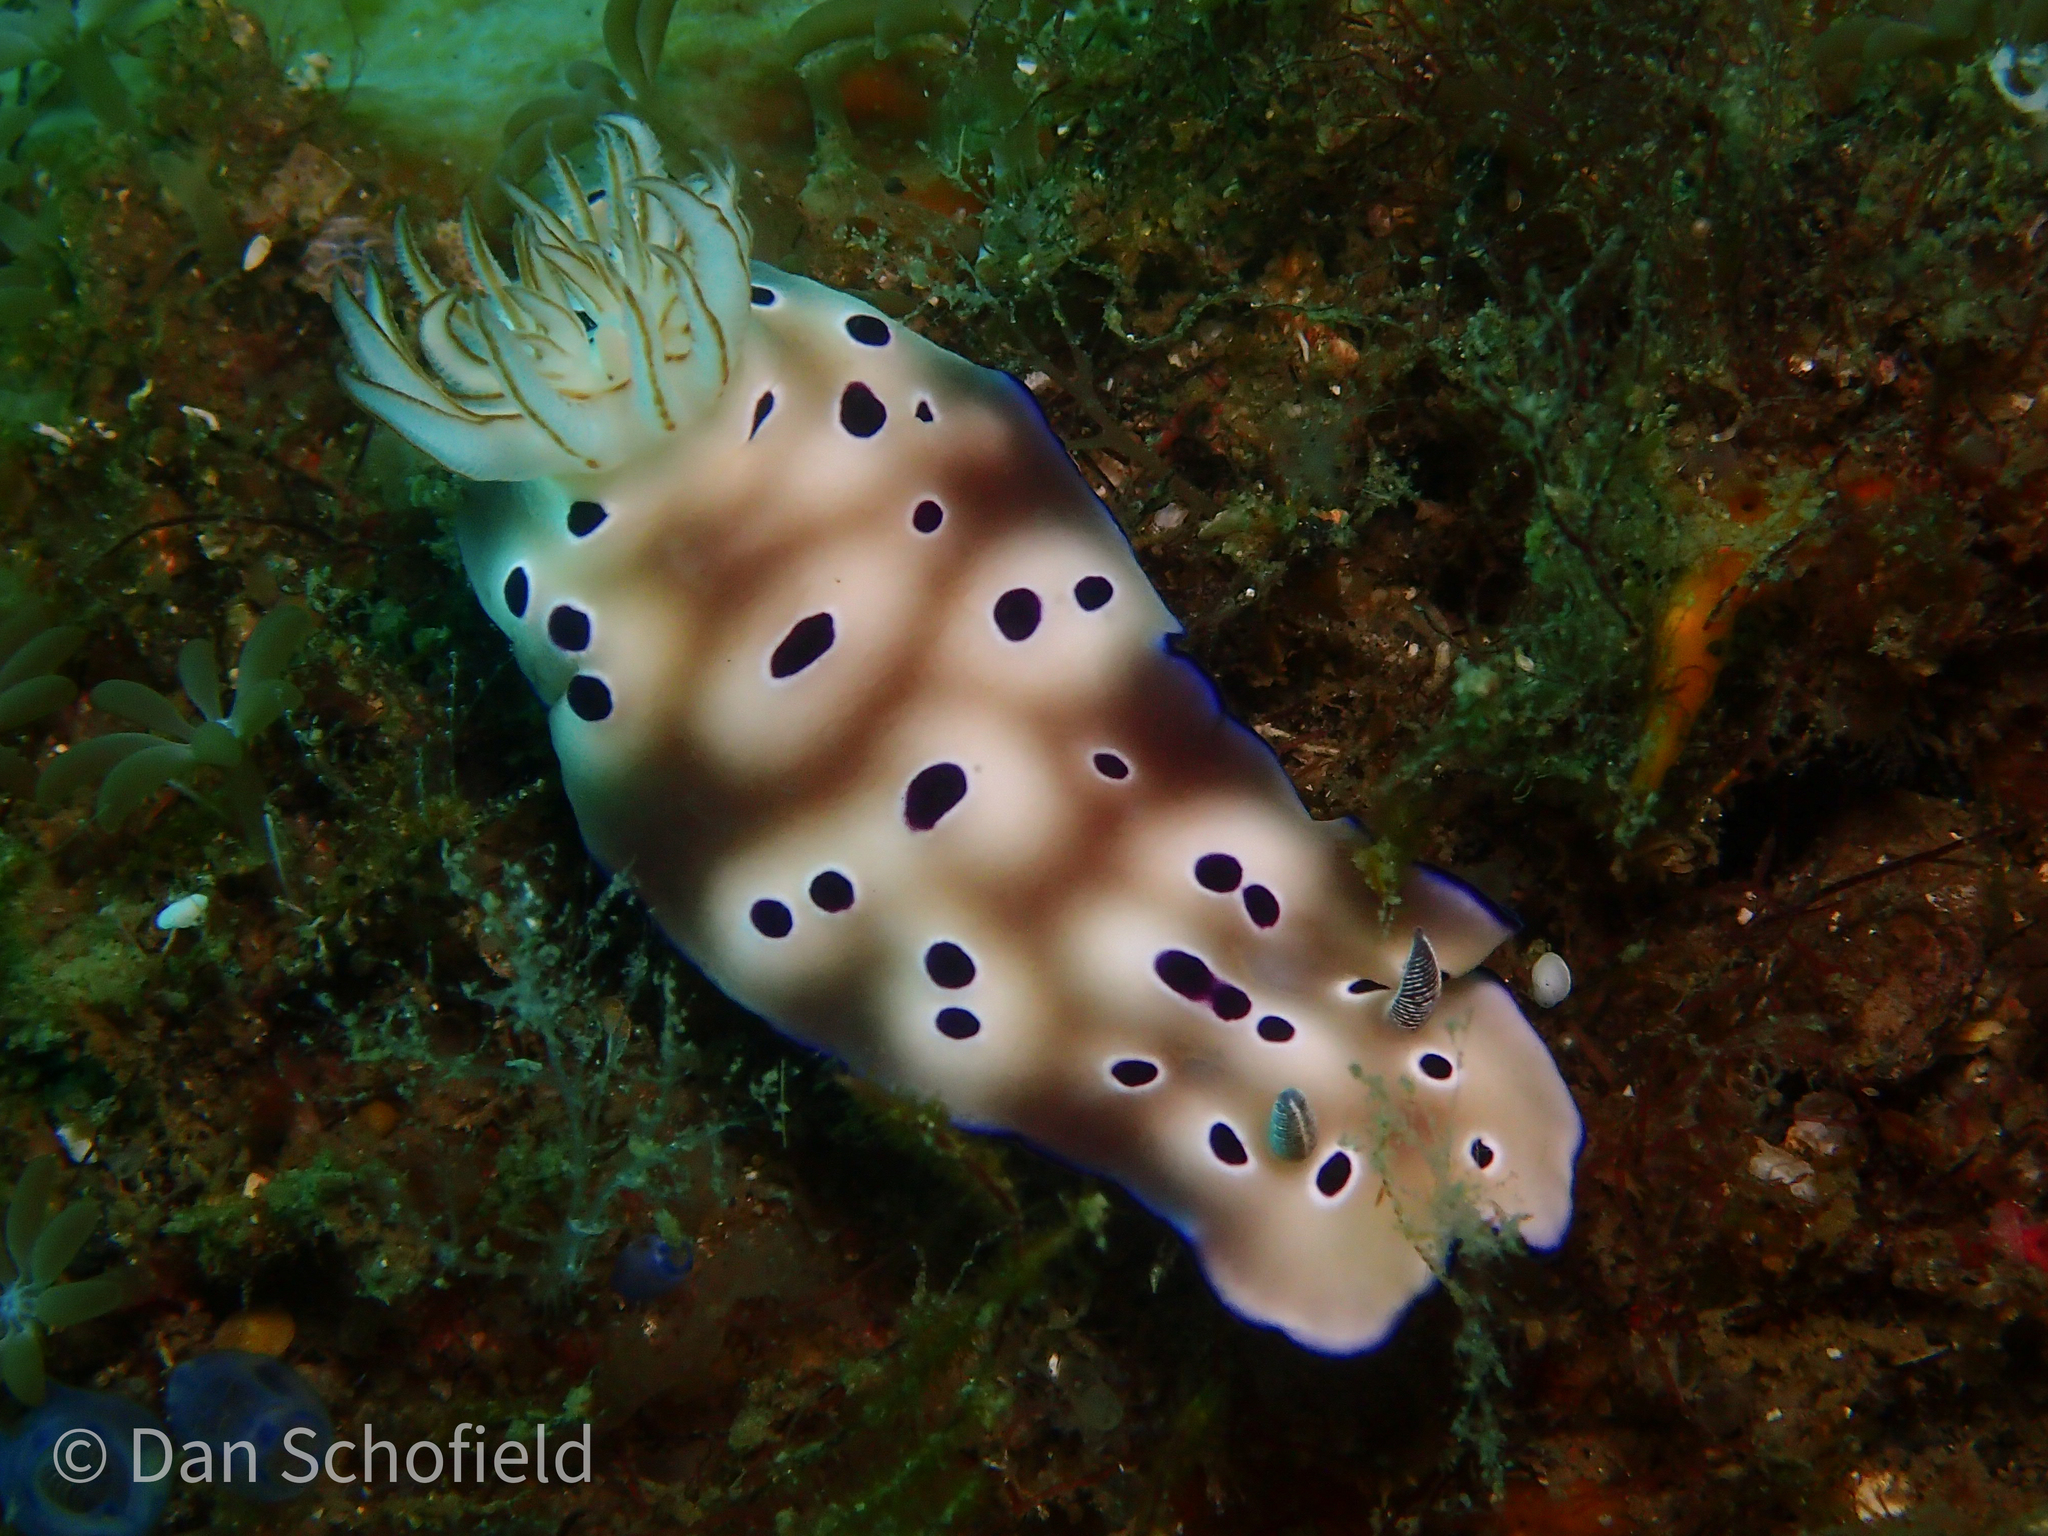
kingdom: Animalia
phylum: Mollusca
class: Gastropoda
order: Nudibranchia
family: Chromodorididae
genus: Hypselodoris
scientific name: Hypselodoris tryoni
